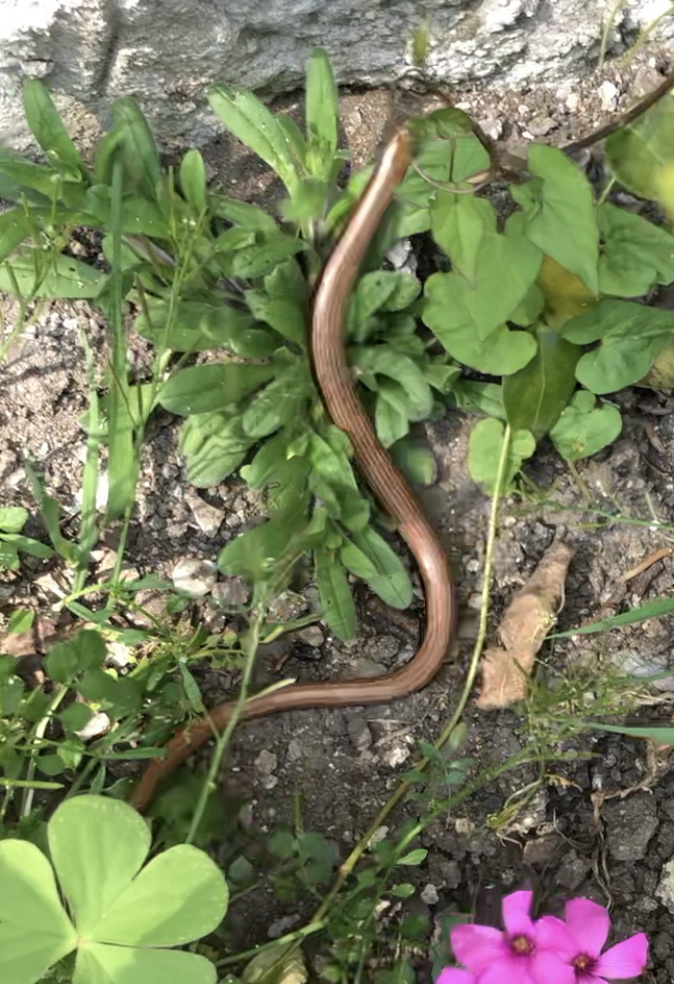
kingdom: Animalia
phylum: Chordata
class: Squamata
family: Anguidae
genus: Anguis
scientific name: Anguis fragilis
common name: Slow worm
